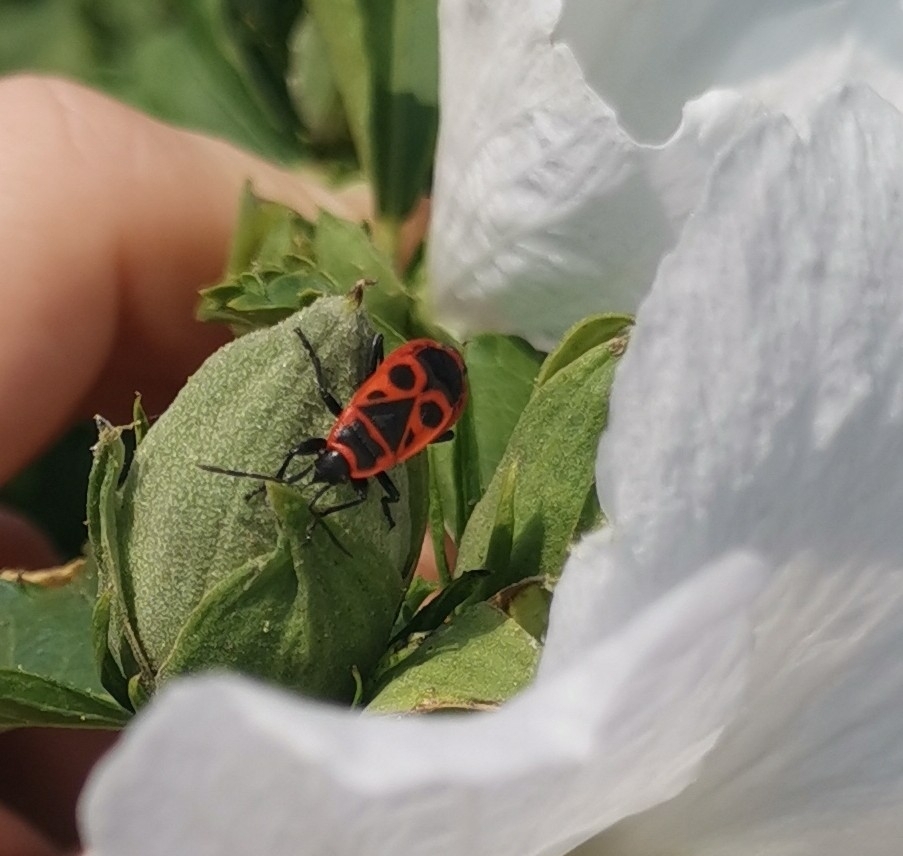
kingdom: Animalia
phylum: Arthropoda
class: Insecta
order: Hemiptera
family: Pyrrhocoridae
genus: Pyrrhocoris
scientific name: Pyrrhocoris apterus
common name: Firebug
